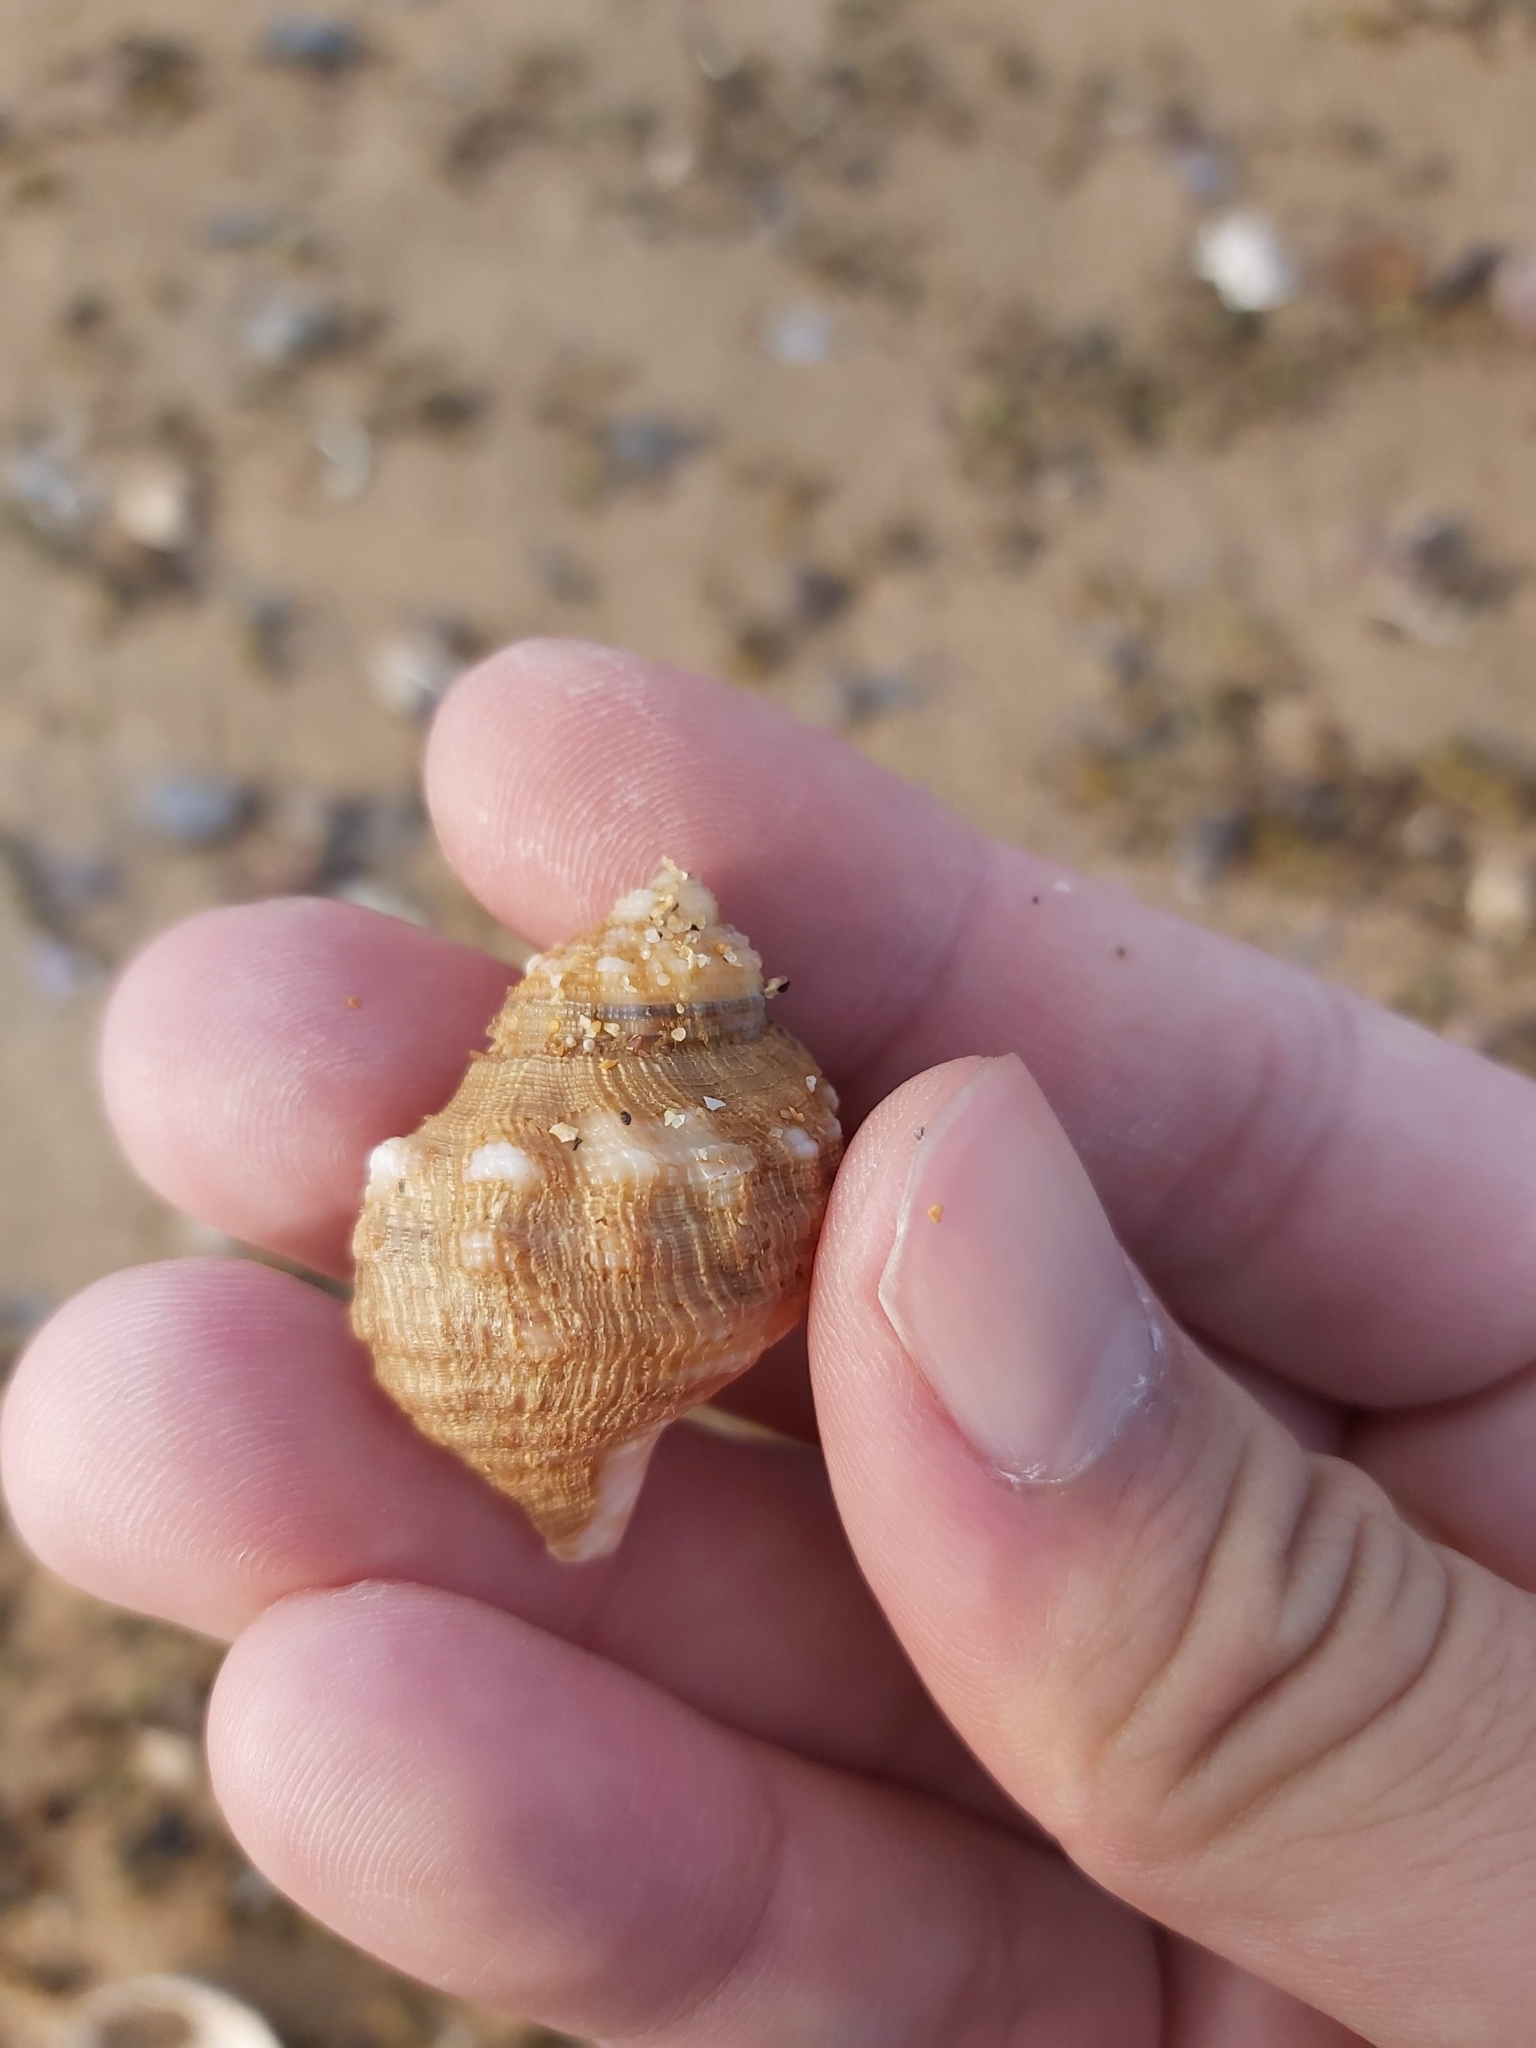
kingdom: Animalia
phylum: Mollusca
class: Gastropoda
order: Littorinimorpha
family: Cymatiidae
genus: Cabestana
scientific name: Cabestana spengleri
